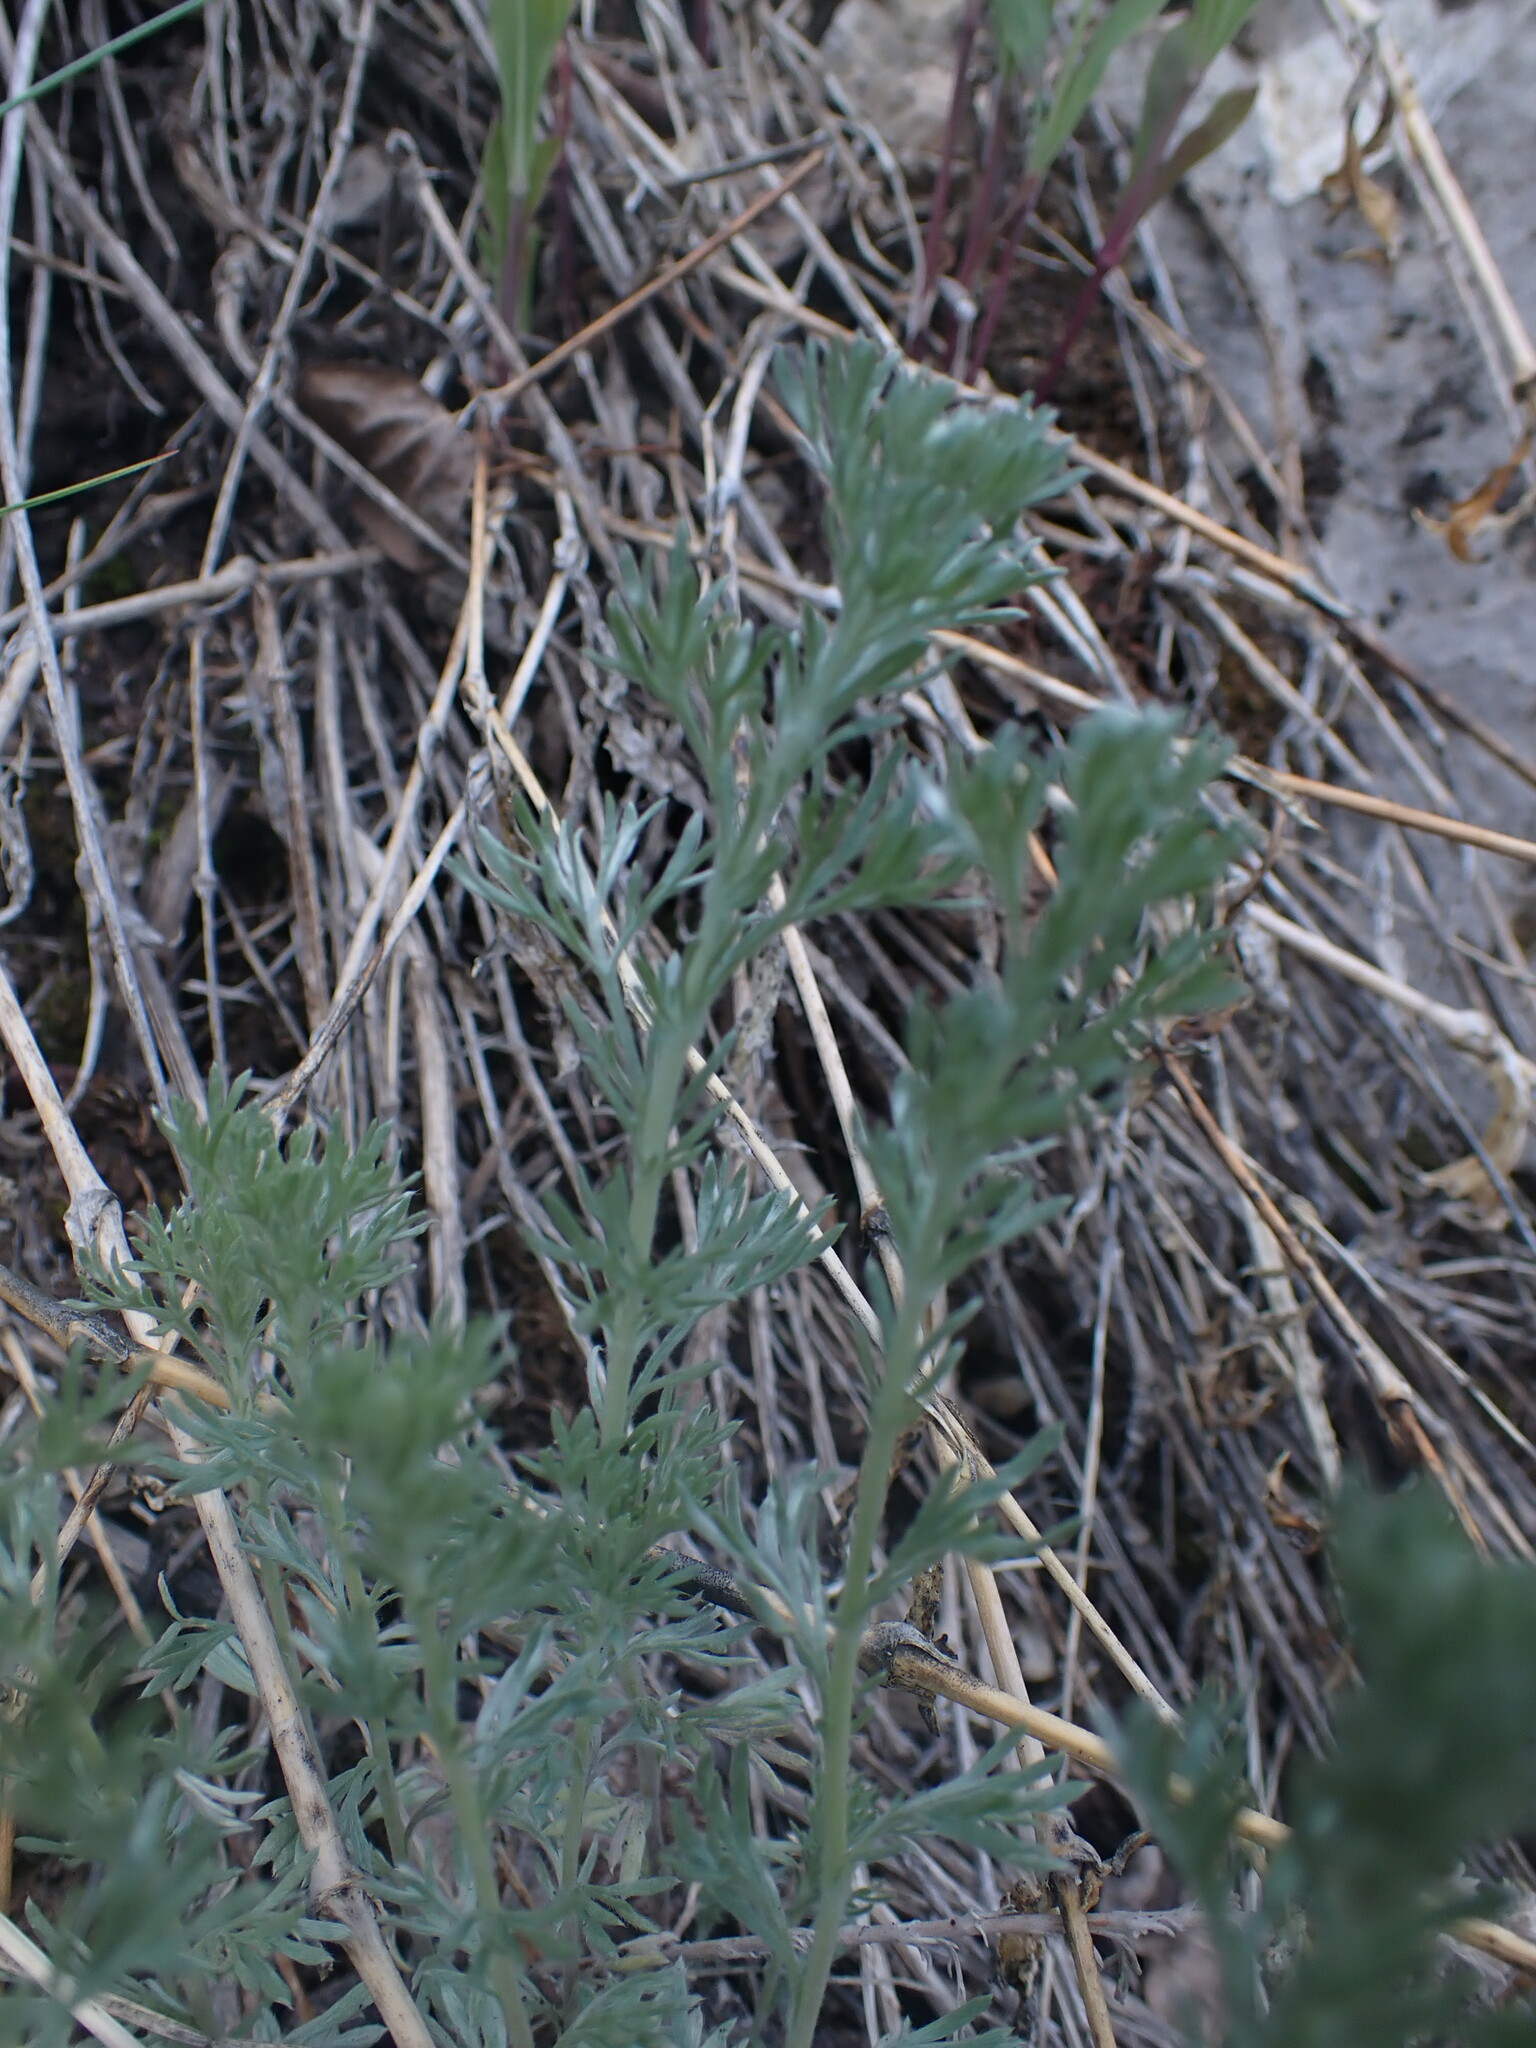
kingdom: Plantae
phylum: Tracheophyta
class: Magnoliopsida
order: Asterales
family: Asteraceae
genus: Artemisia
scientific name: Artemisia frigida
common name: Prairie sagewort
